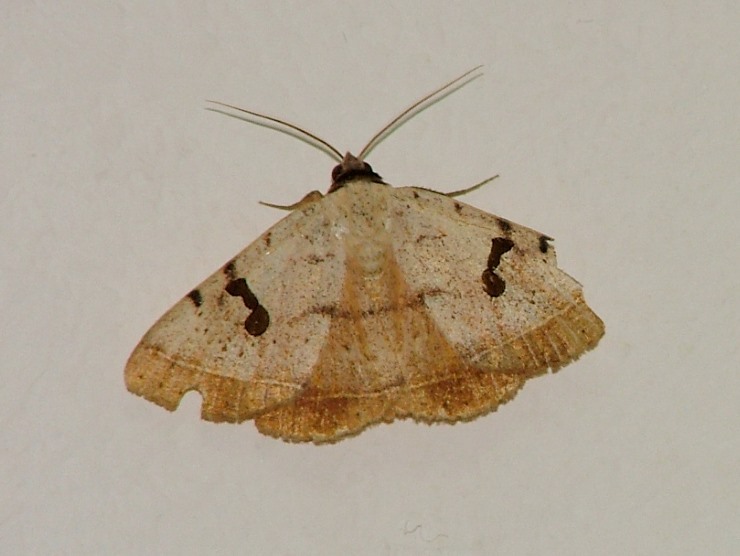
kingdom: Animalia
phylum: Arthropoda
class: Insecta
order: Lepidoptera
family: Erebidae
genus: Hypopyra
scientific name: Hypopyra carneotincta
